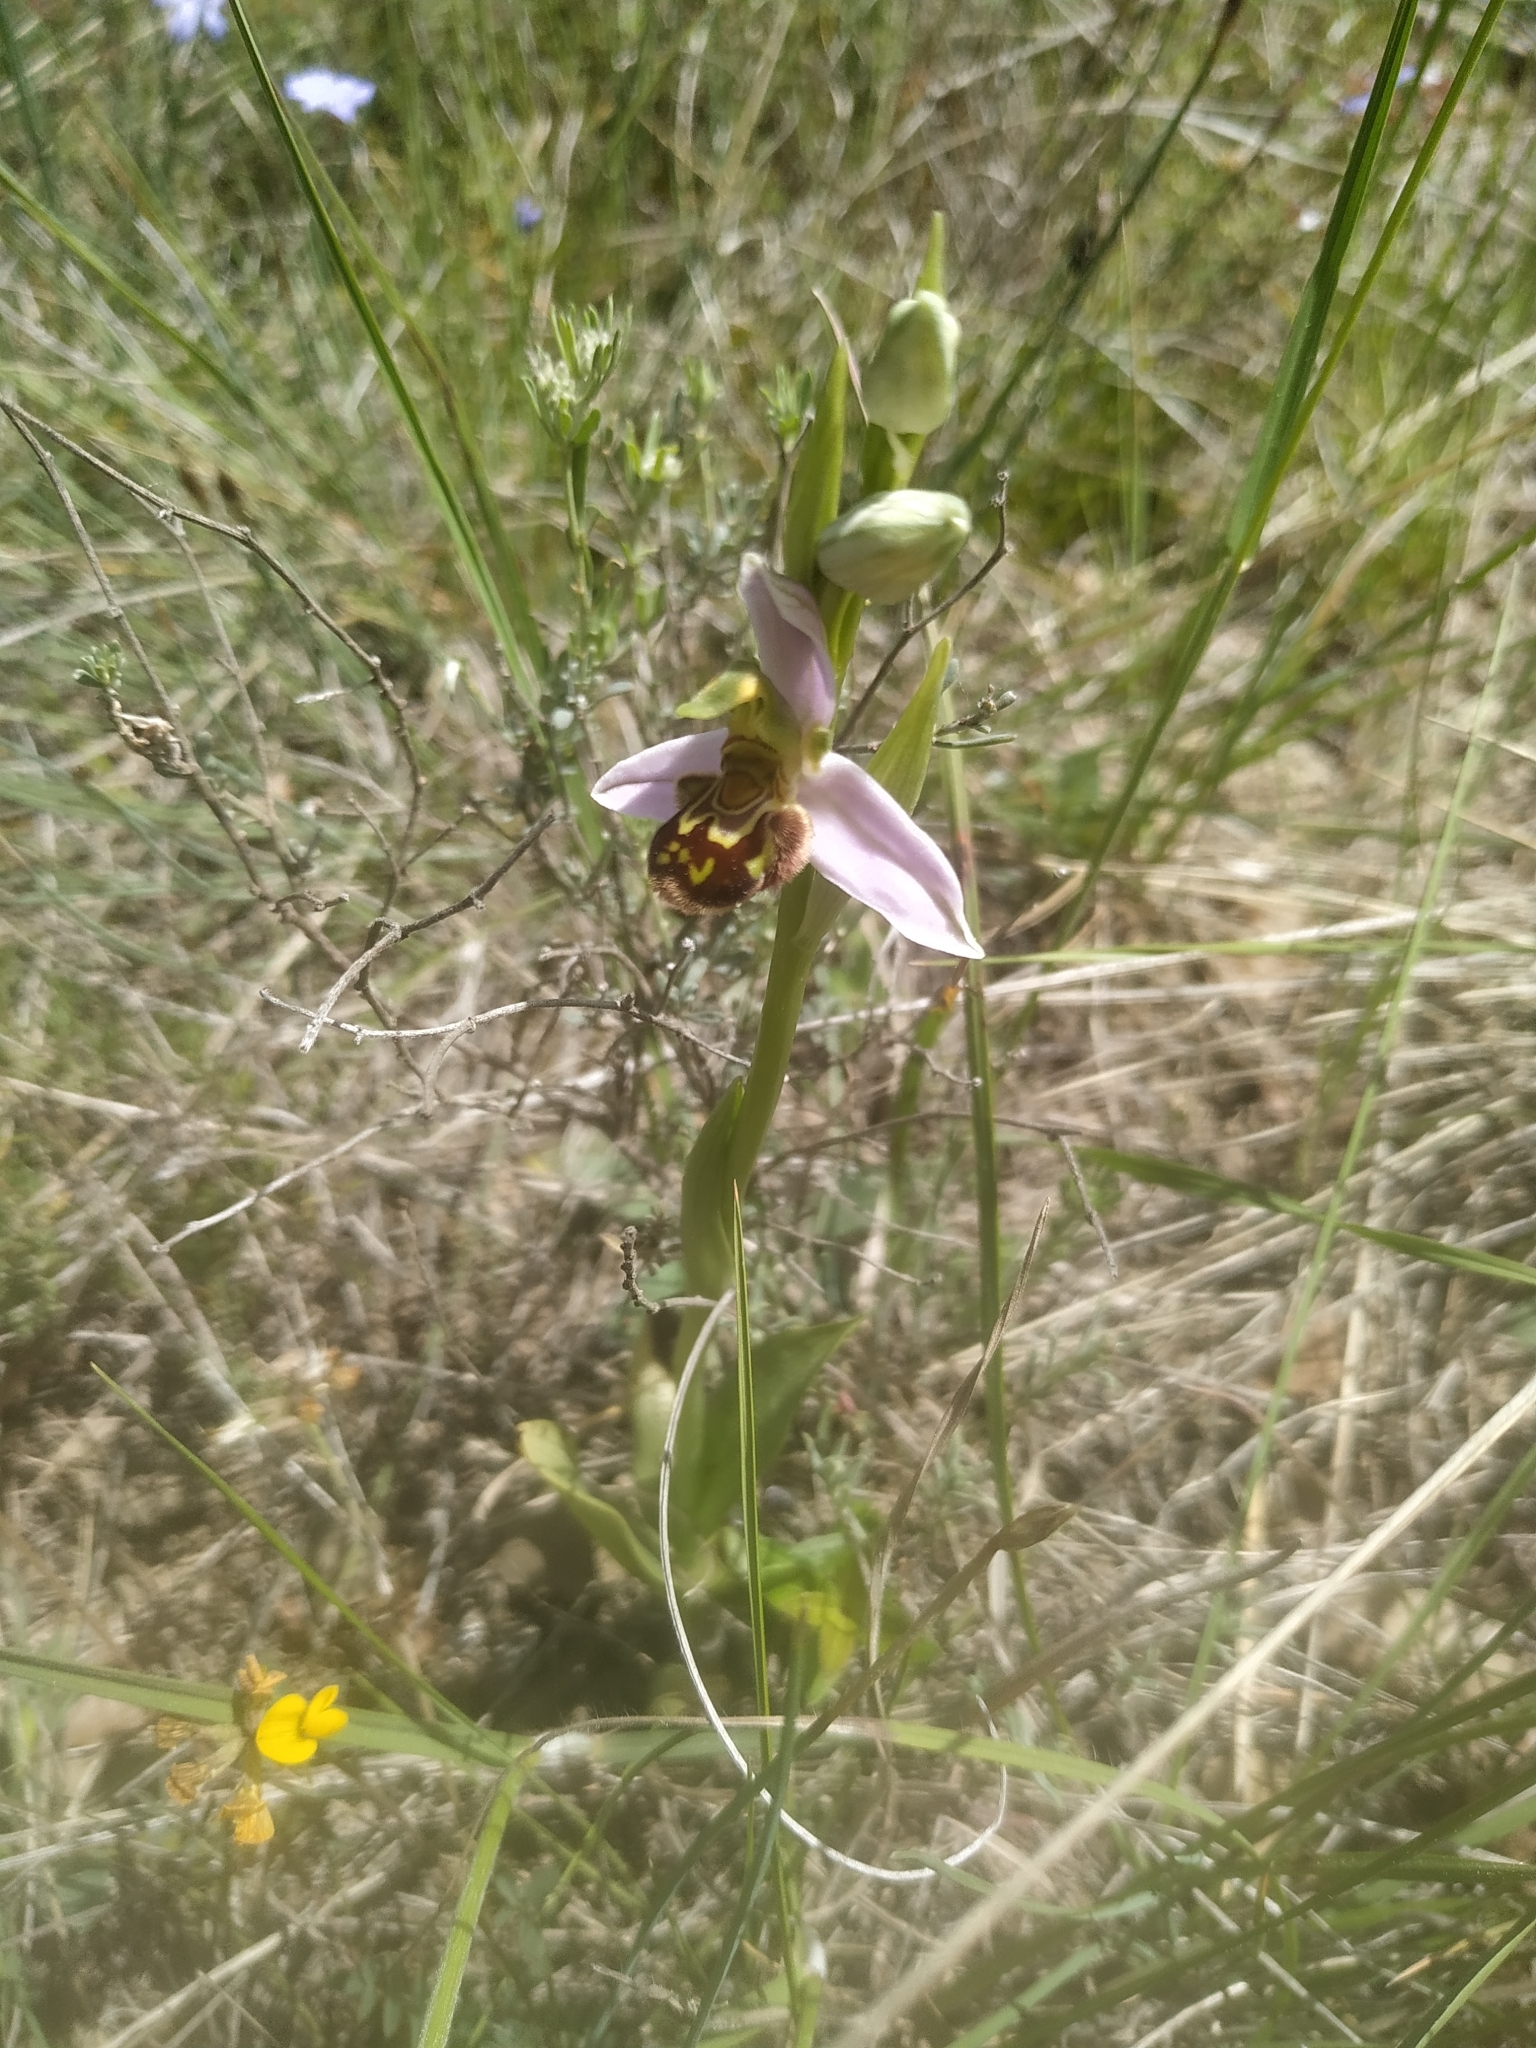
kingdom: Plantae
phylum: Tracheophyta
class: Liliopsida
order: Asparagales
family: Orchidaceae
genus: Ophrys
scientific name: Ophrys apifera
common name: Bee orchid
